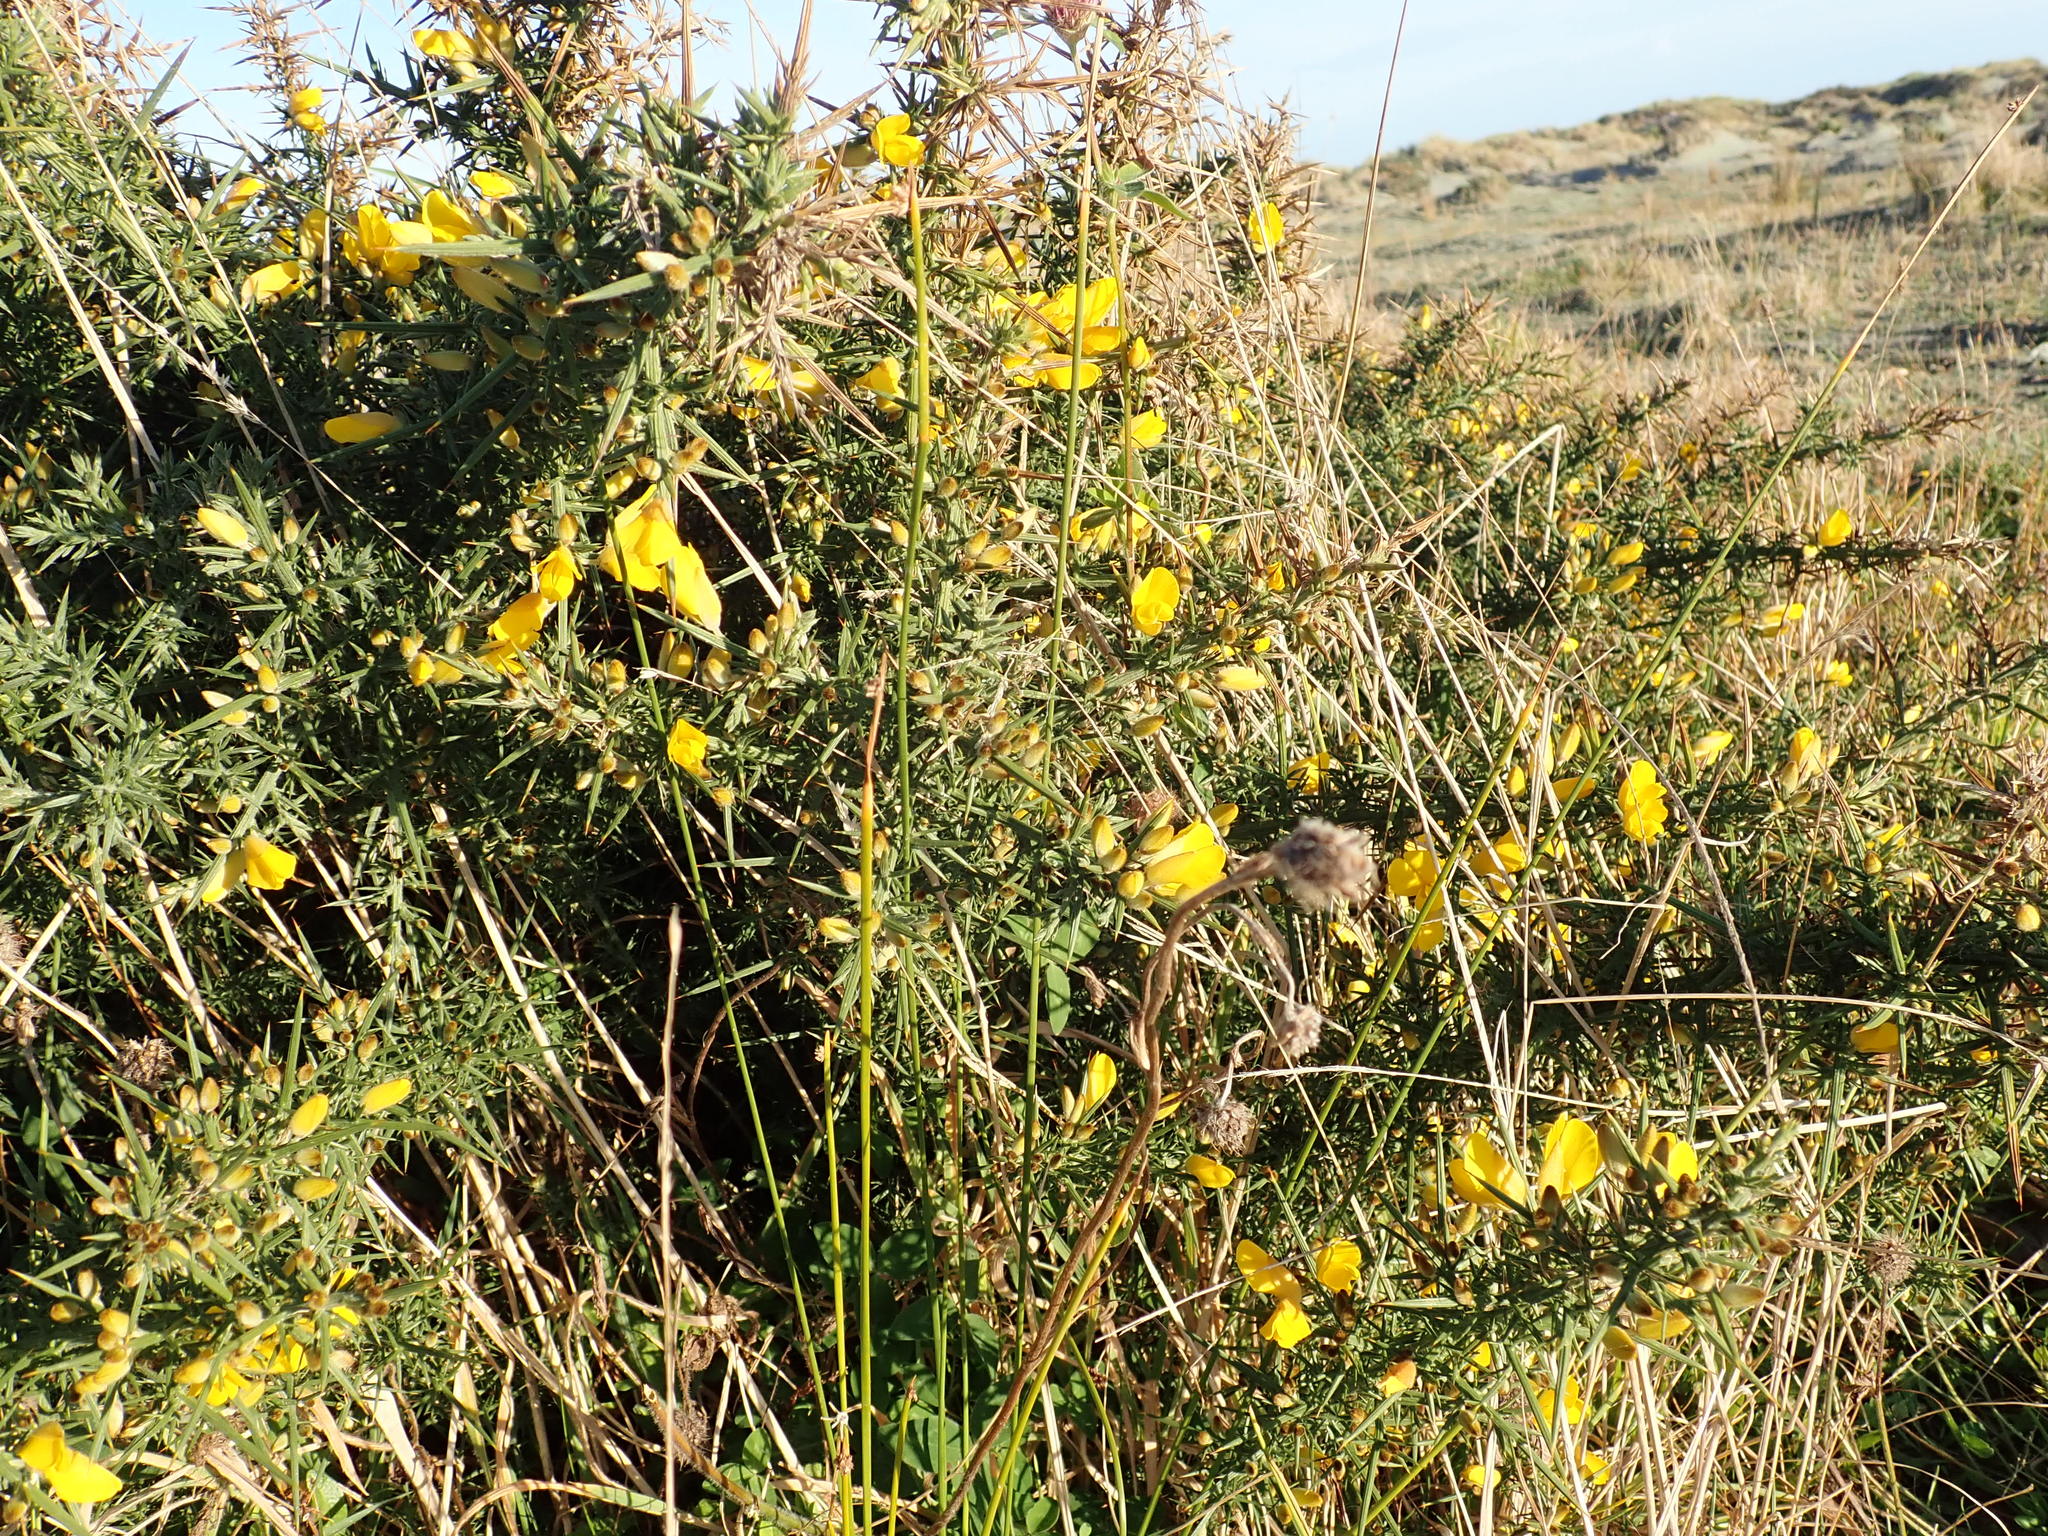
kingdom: Plantae
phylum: Tracheophyta
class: Magnoliopsida
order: Fabales
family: Fabaceae
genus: Ulex
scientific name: Ulex europaeus
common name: Common gorse
